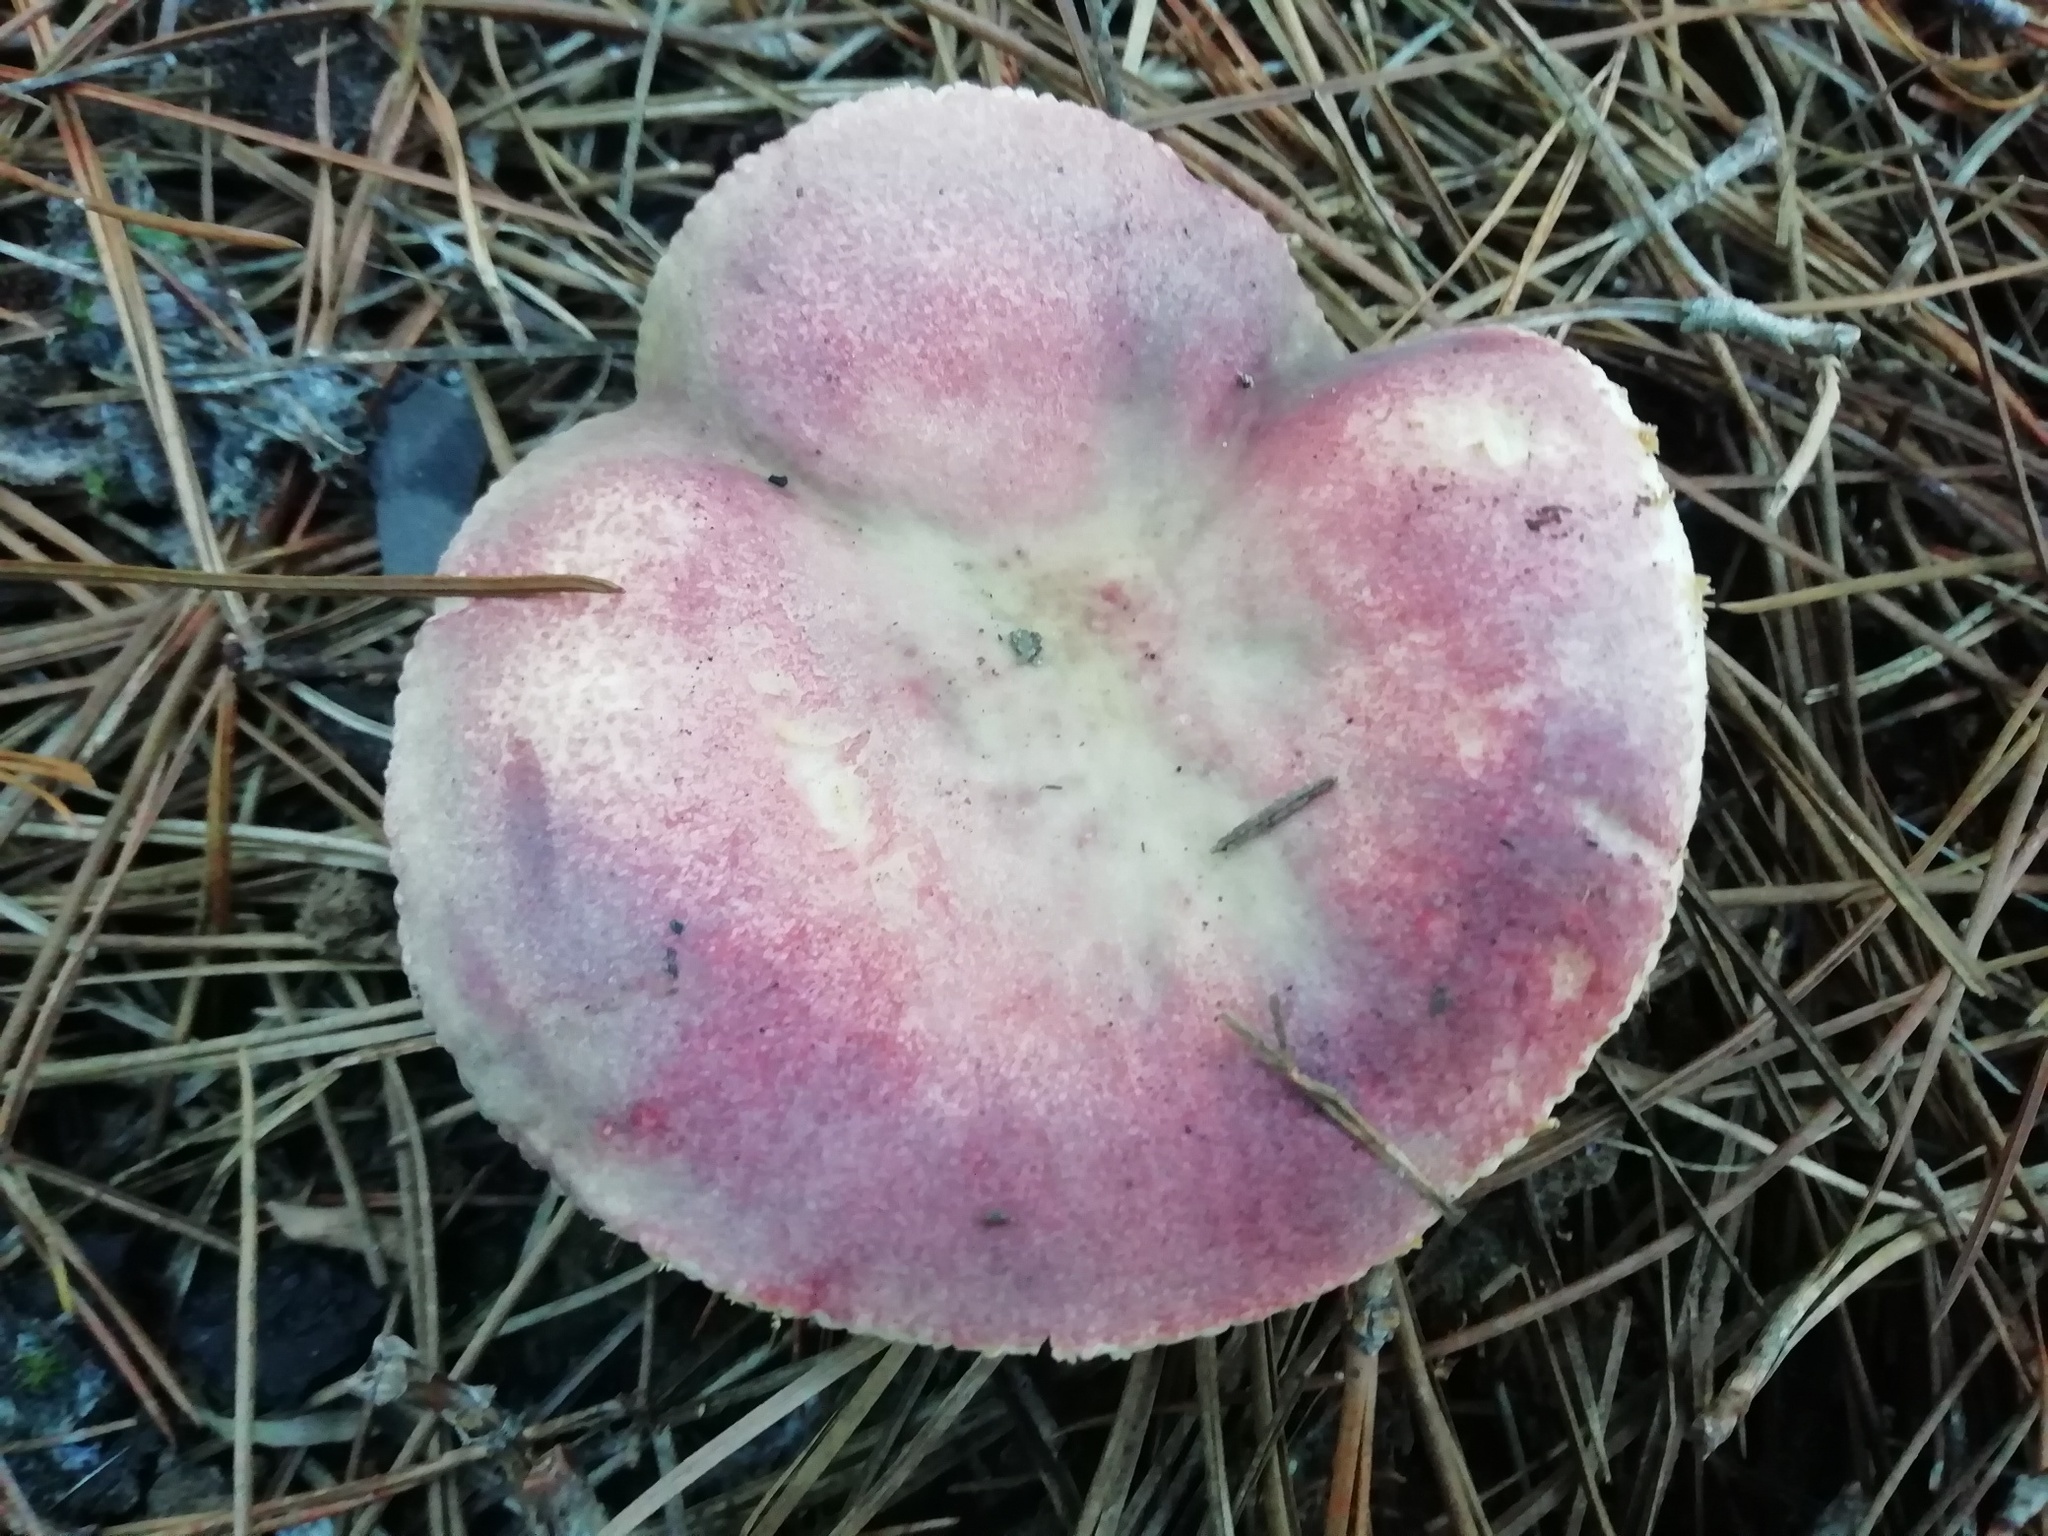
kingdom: Fungi
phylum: Basidiomycota
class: Agaricomycetes
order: Russulales
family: Russulaceae
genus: Russula
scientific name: Russula sardonia
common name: Primrose brittlegill
